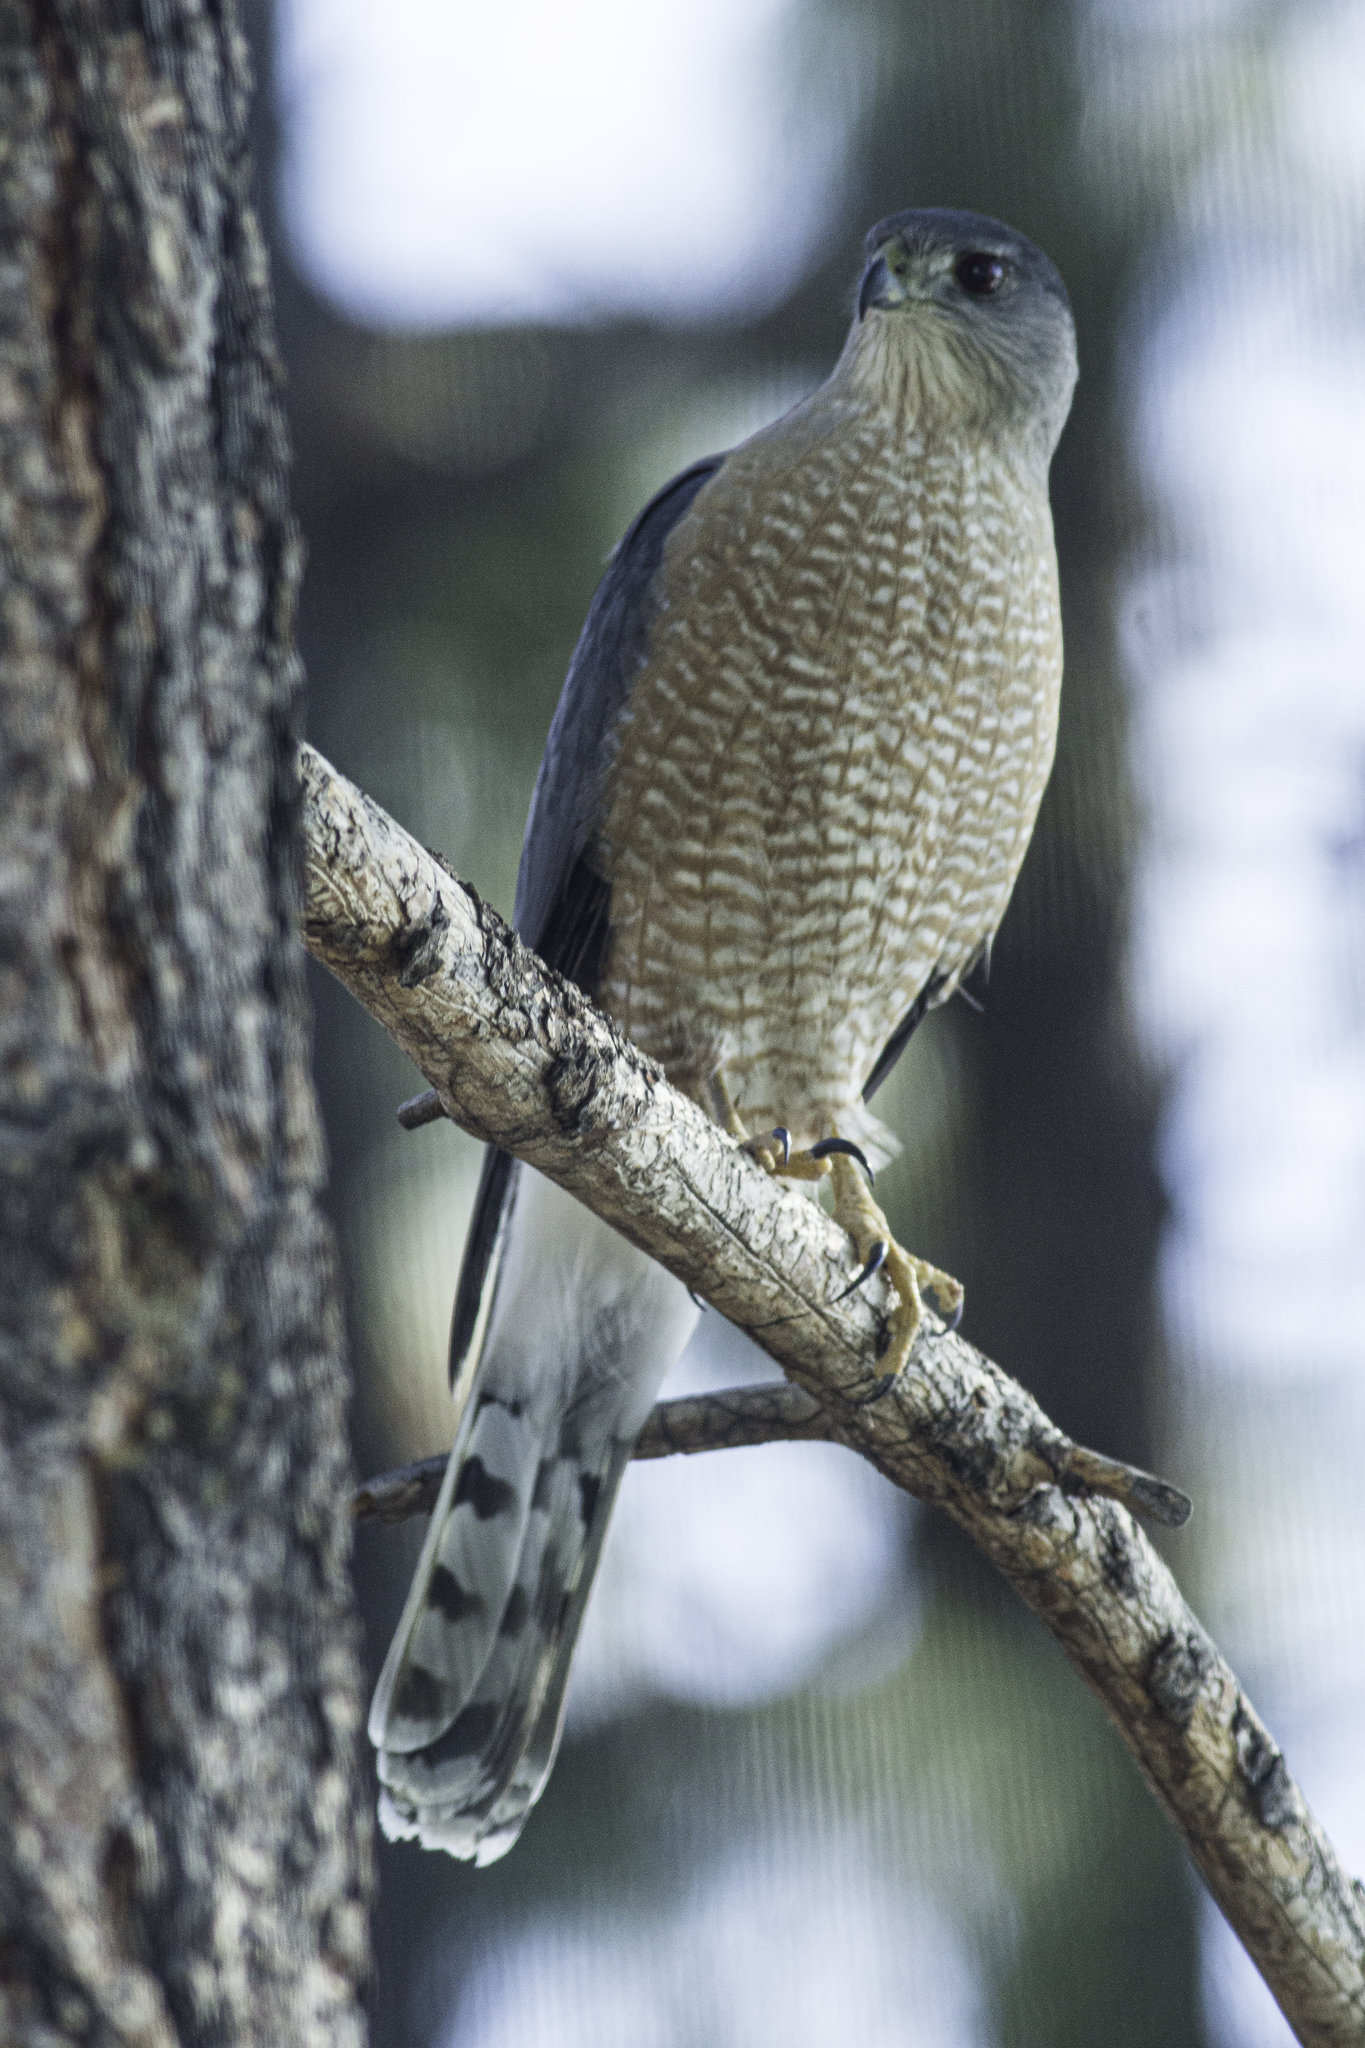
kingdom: Animalia
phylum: Chordata
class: Aves
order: Accipitriformes
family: Accipitridae
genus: Accipiter
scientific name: Accipiter cooperii
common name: Cooper's hawk
